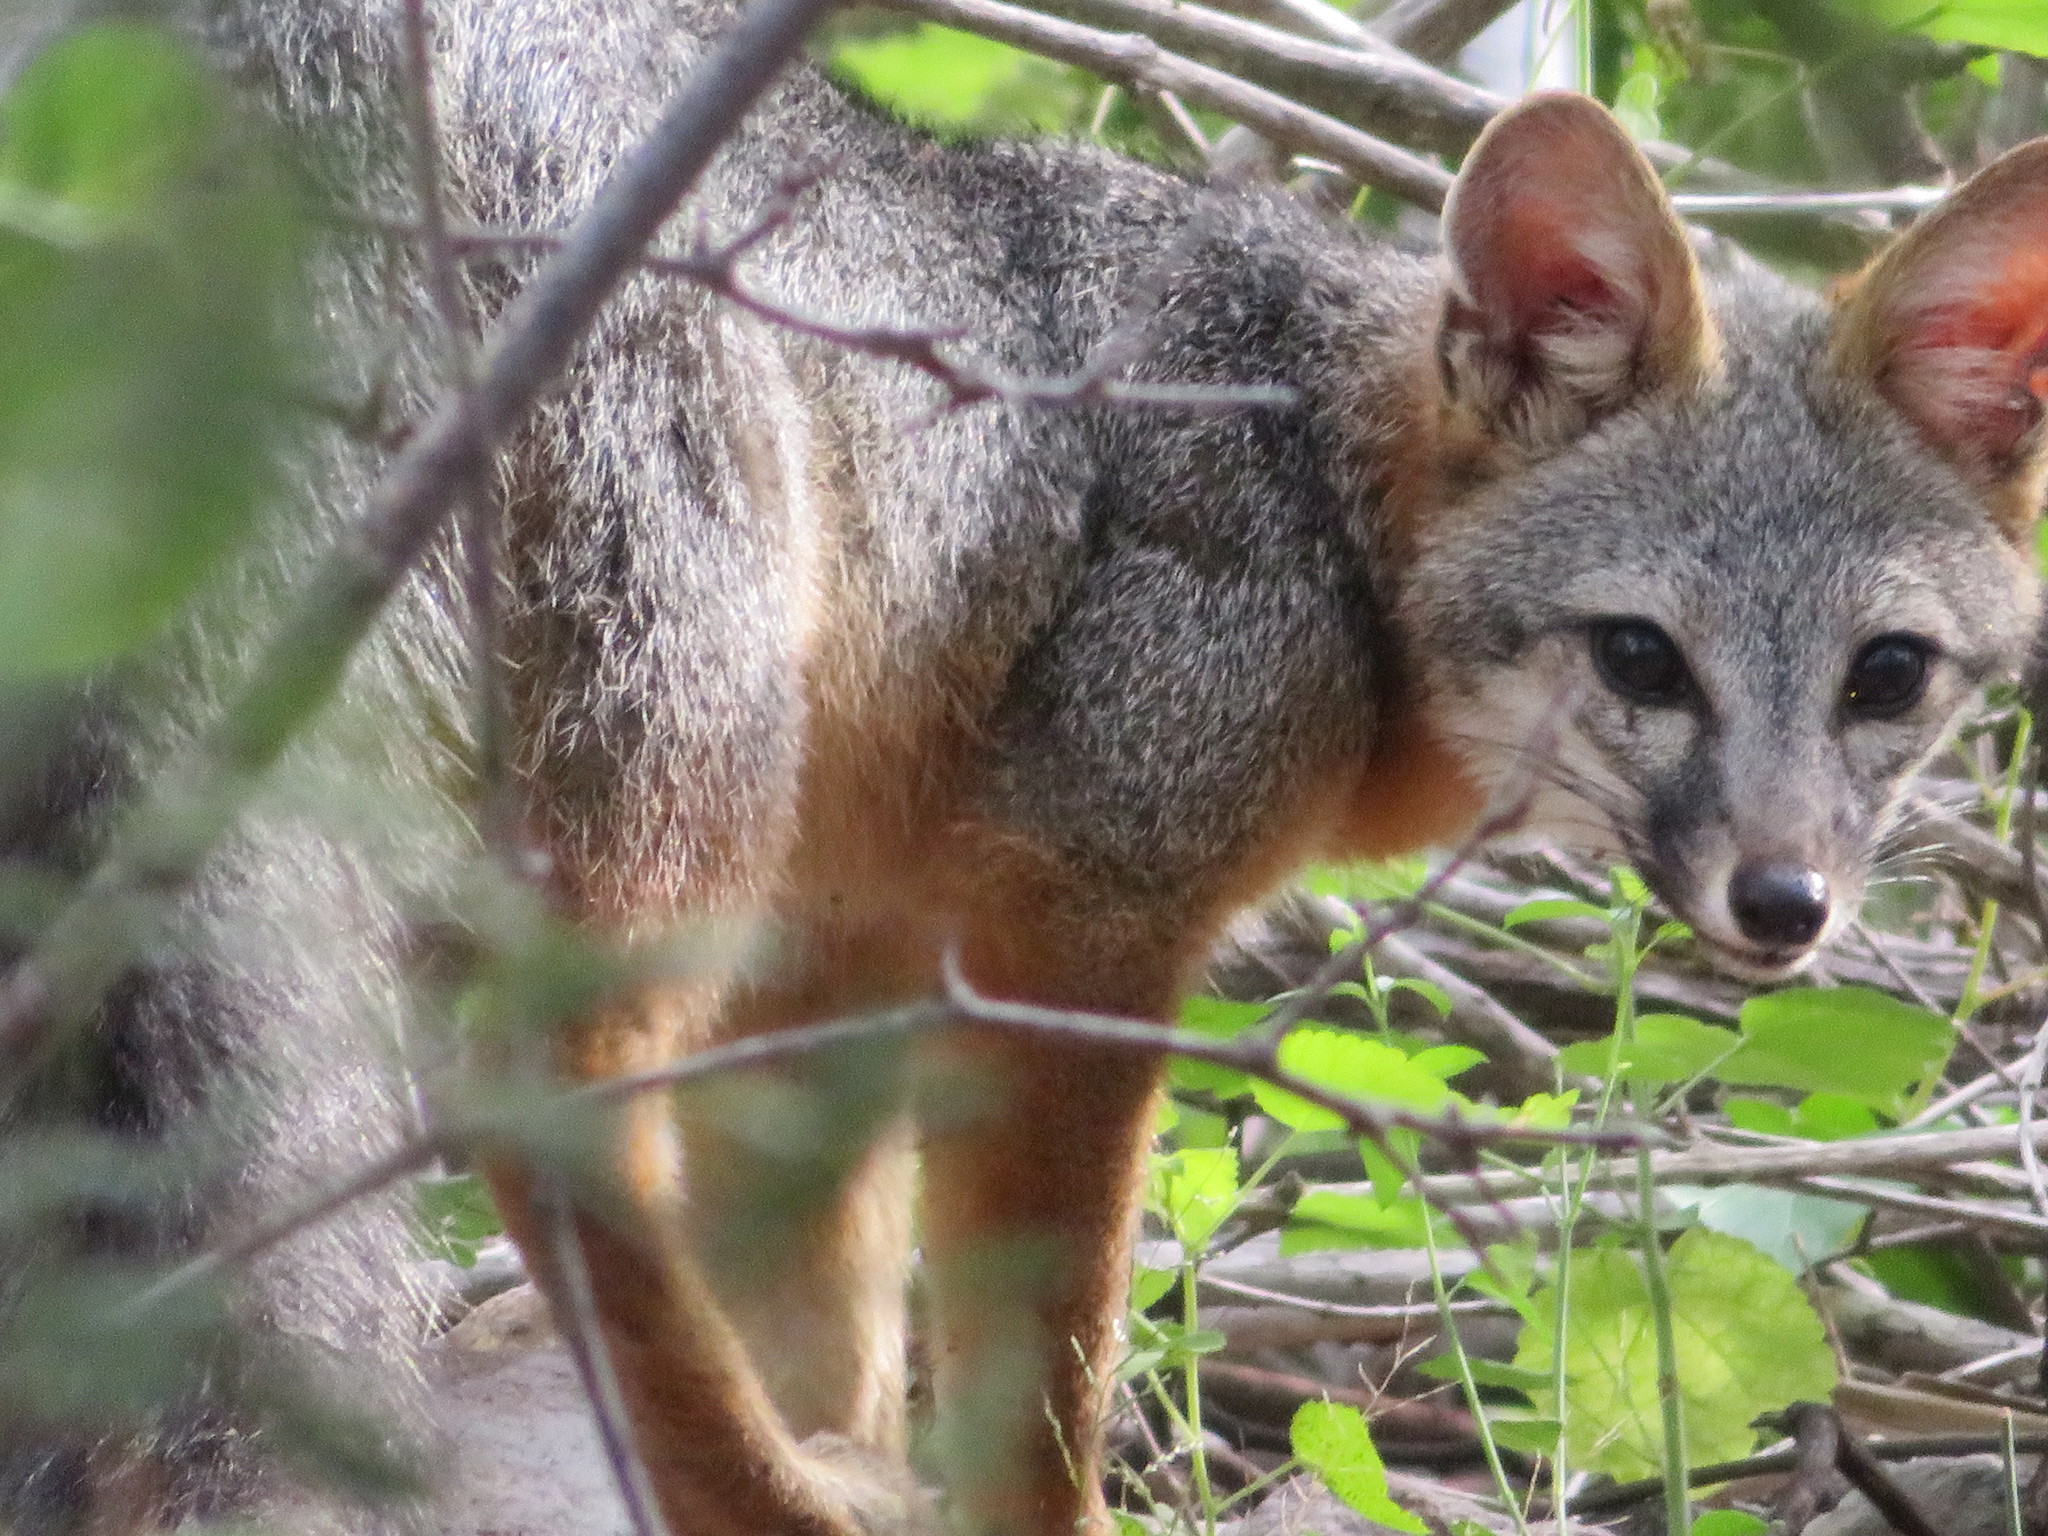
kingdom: Animalia
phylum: Chordata
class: Mammalia
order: Carnivora
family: Canidae
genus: Urocyon
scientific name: Urocyon cinereoargenteus
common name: Gray fox
